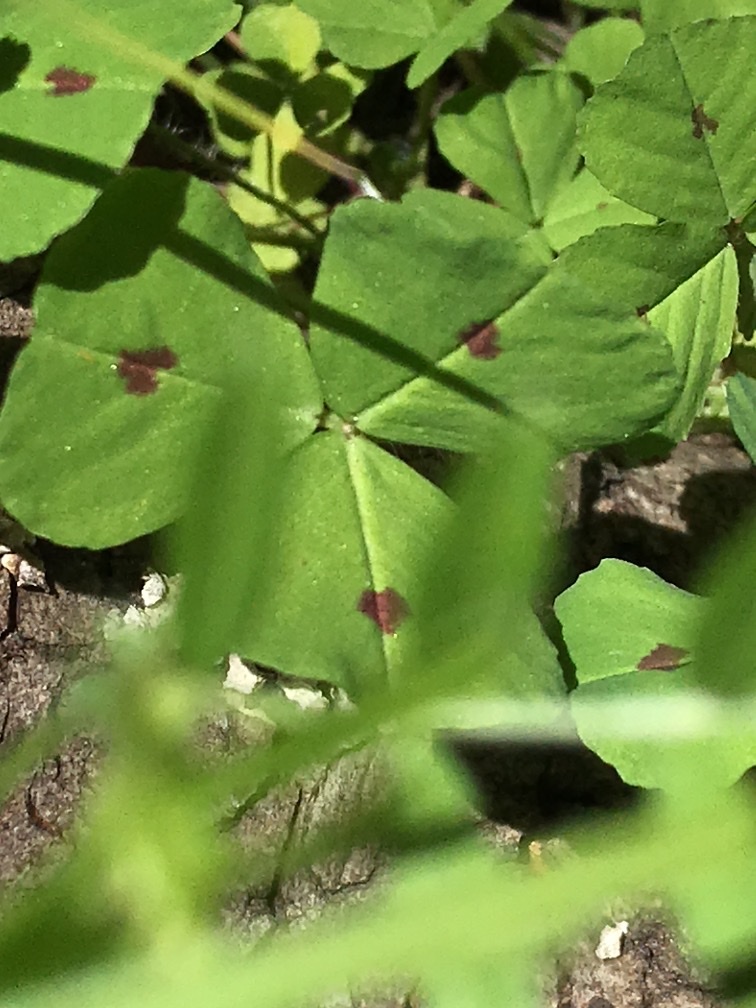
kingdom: Plantae
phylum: Tracheophyta
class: Magnoliopsida
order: Fabales
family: Fabaceae
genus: Medicago
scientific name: Medicago arabica
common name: Spotted medick
